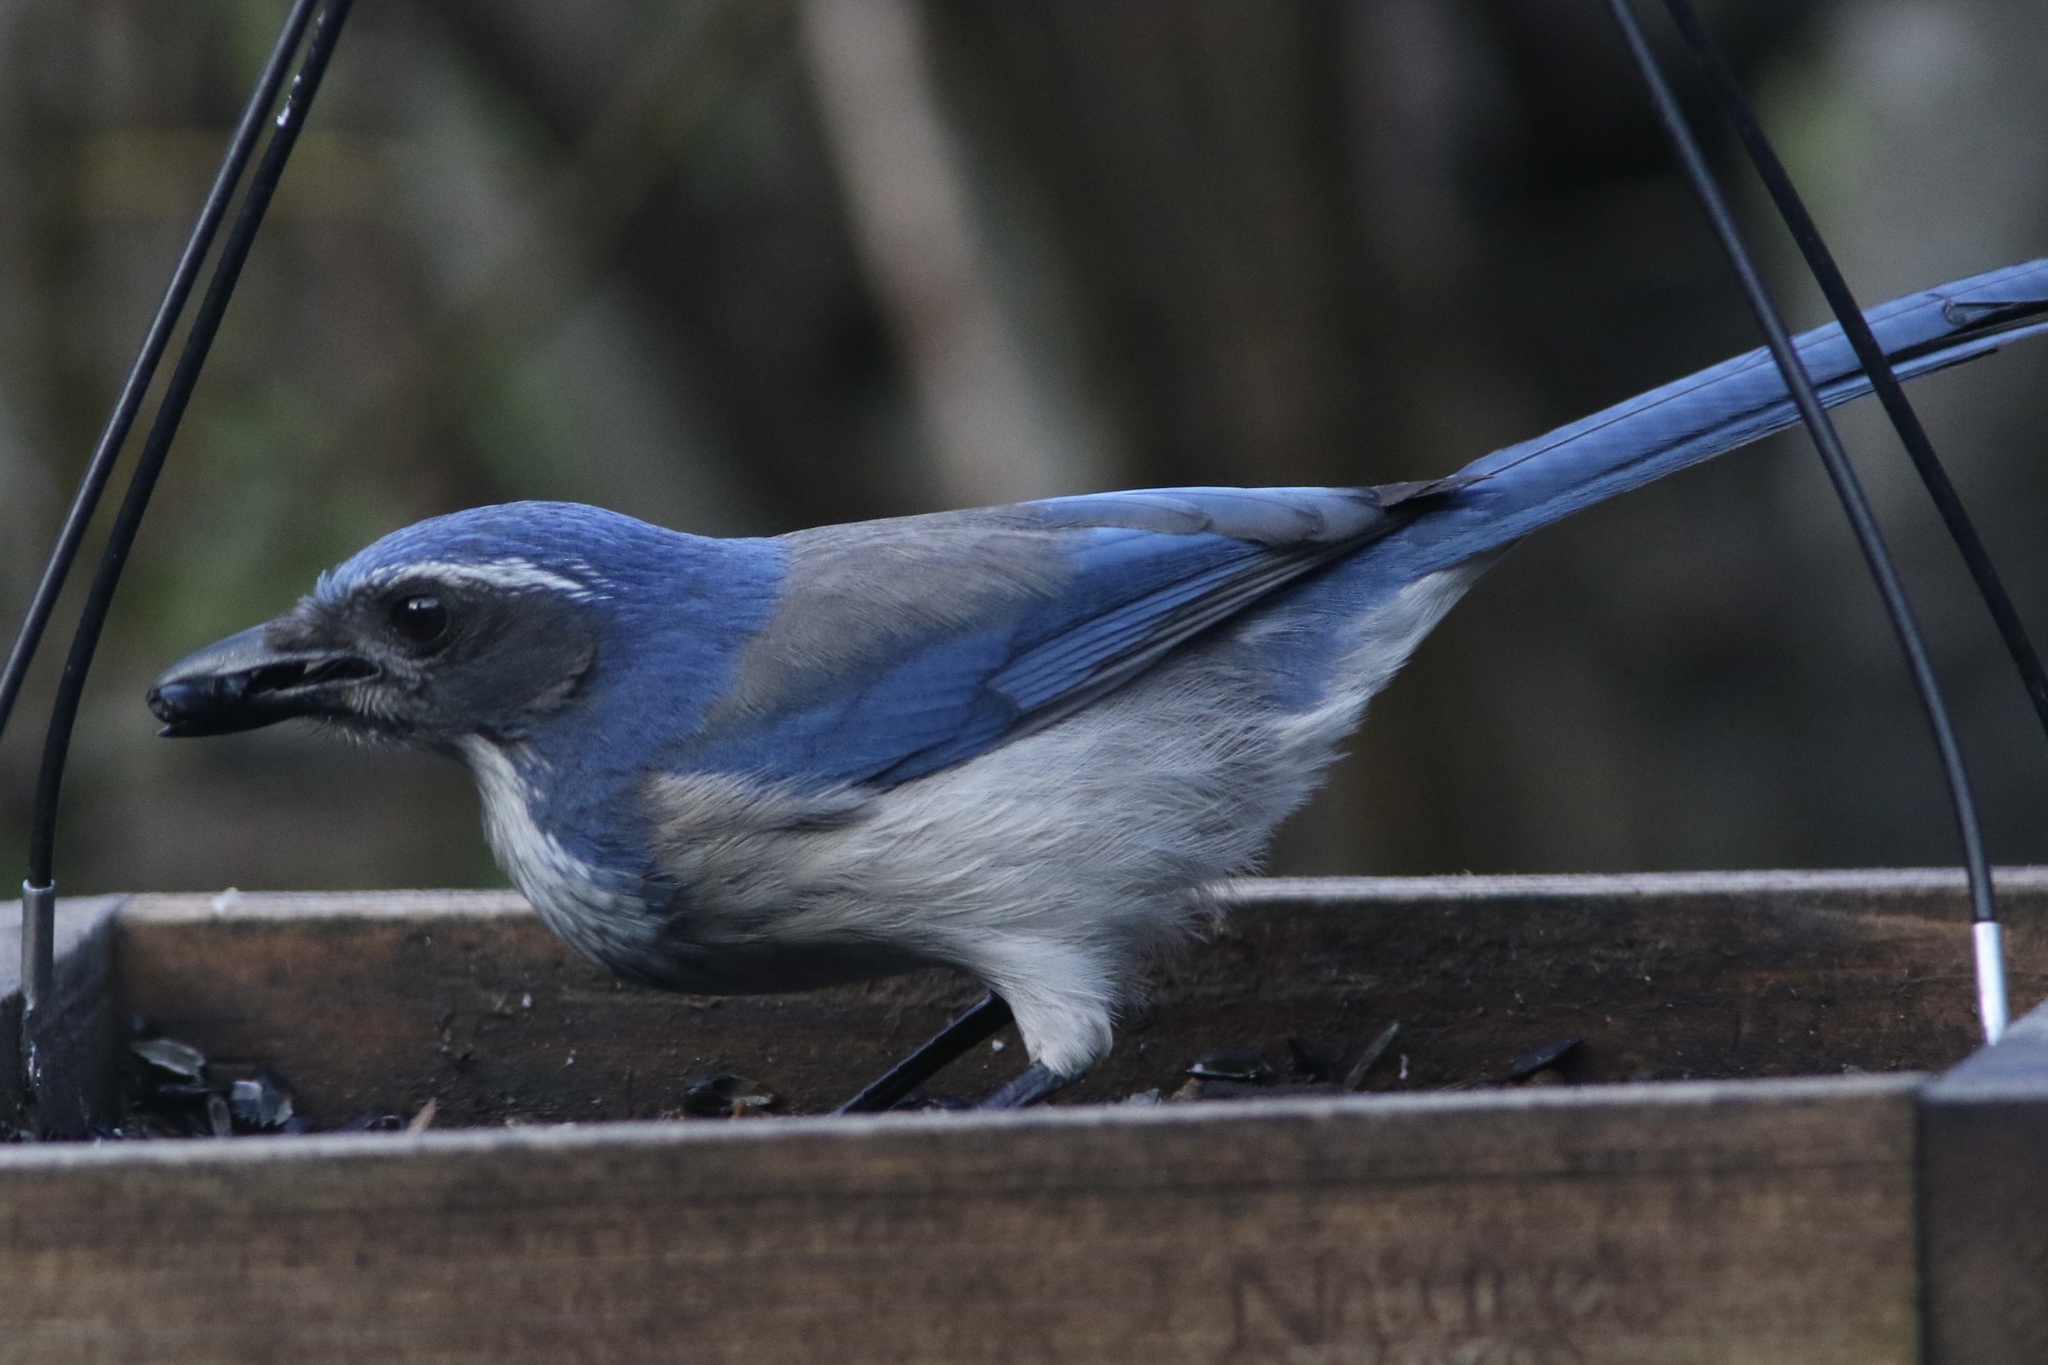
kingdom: Animalia
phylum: Chordata
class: Aves
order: Passeriformes
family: Corvidae
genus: Aphelocoma
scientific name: Aphelocoma californica
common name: California scrub-jay
